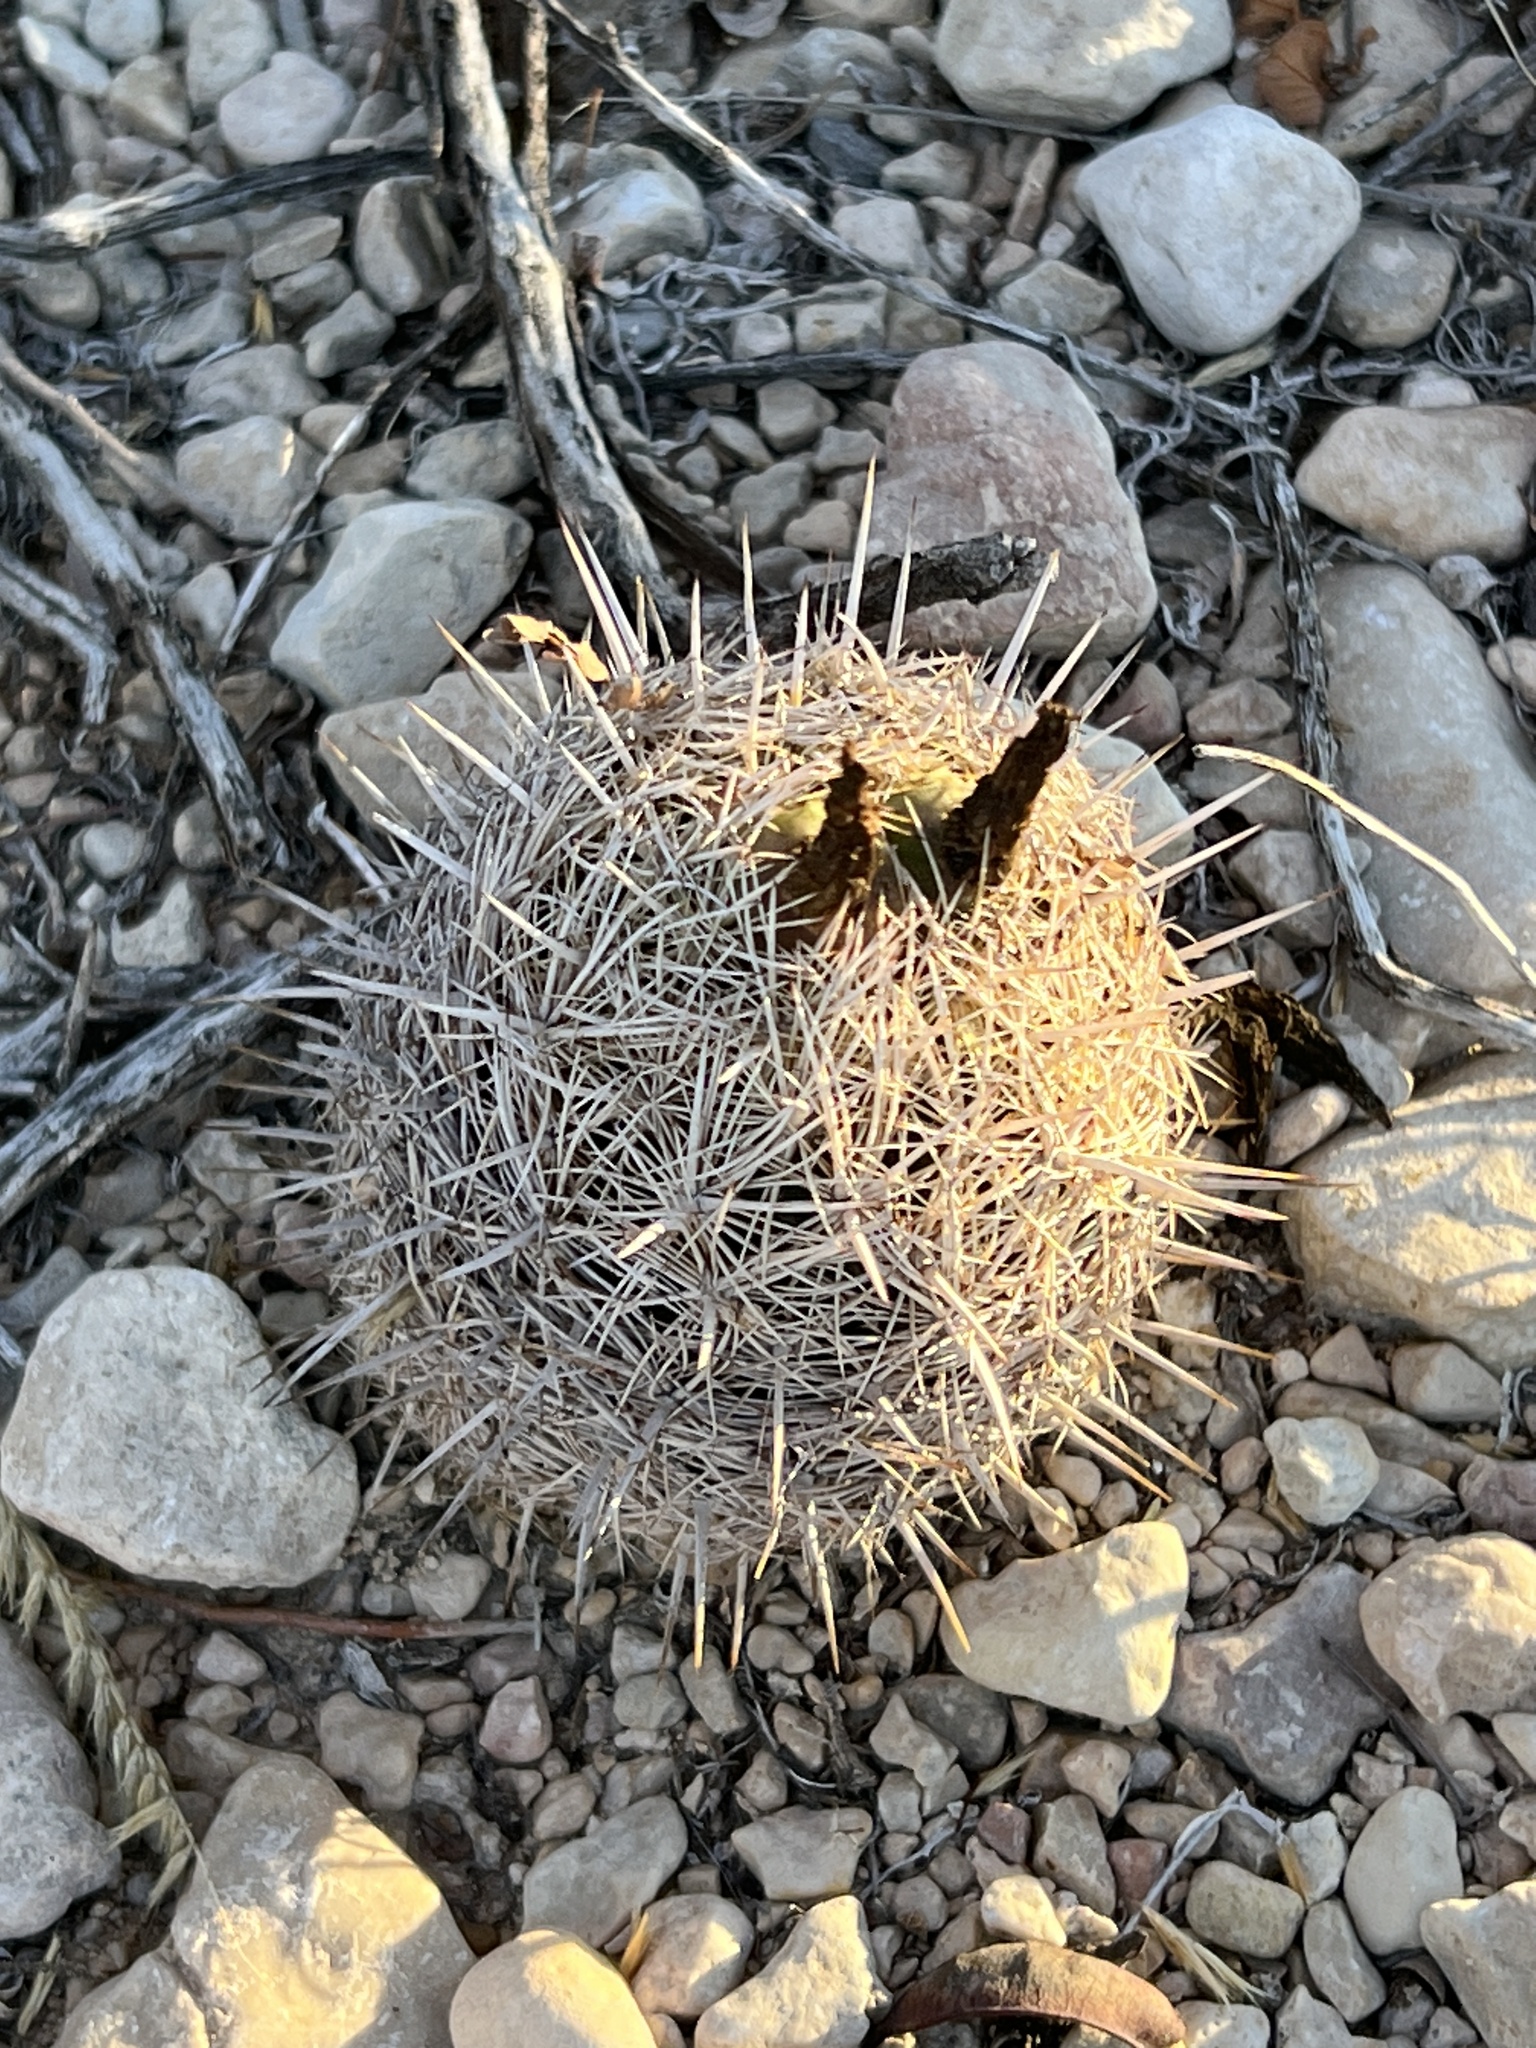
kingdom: Plantae
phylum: Tracheophyta
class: Magnoliopsida
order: Caryophyllales
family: Cactaceae
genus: Coryphantha
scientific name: Coryphantha echinus
